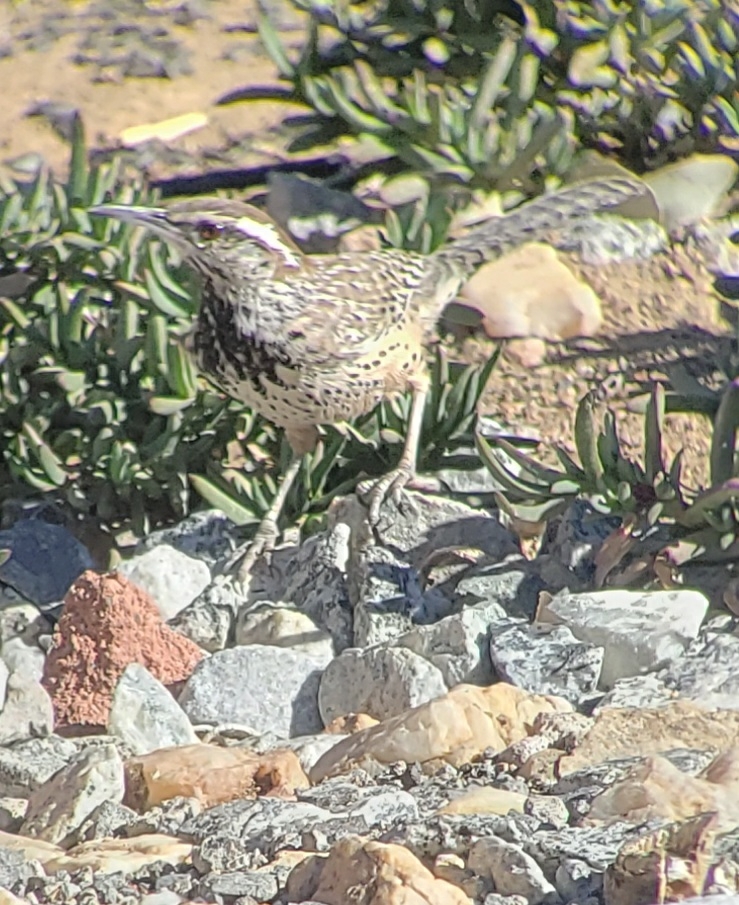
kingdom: Animalia
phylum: Chordata
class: Aves
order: Passeriformes
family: Troglodytidae
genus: Campylorhynchus
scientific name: Campylorhynchus brunneicapillus
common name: Cactus wren
